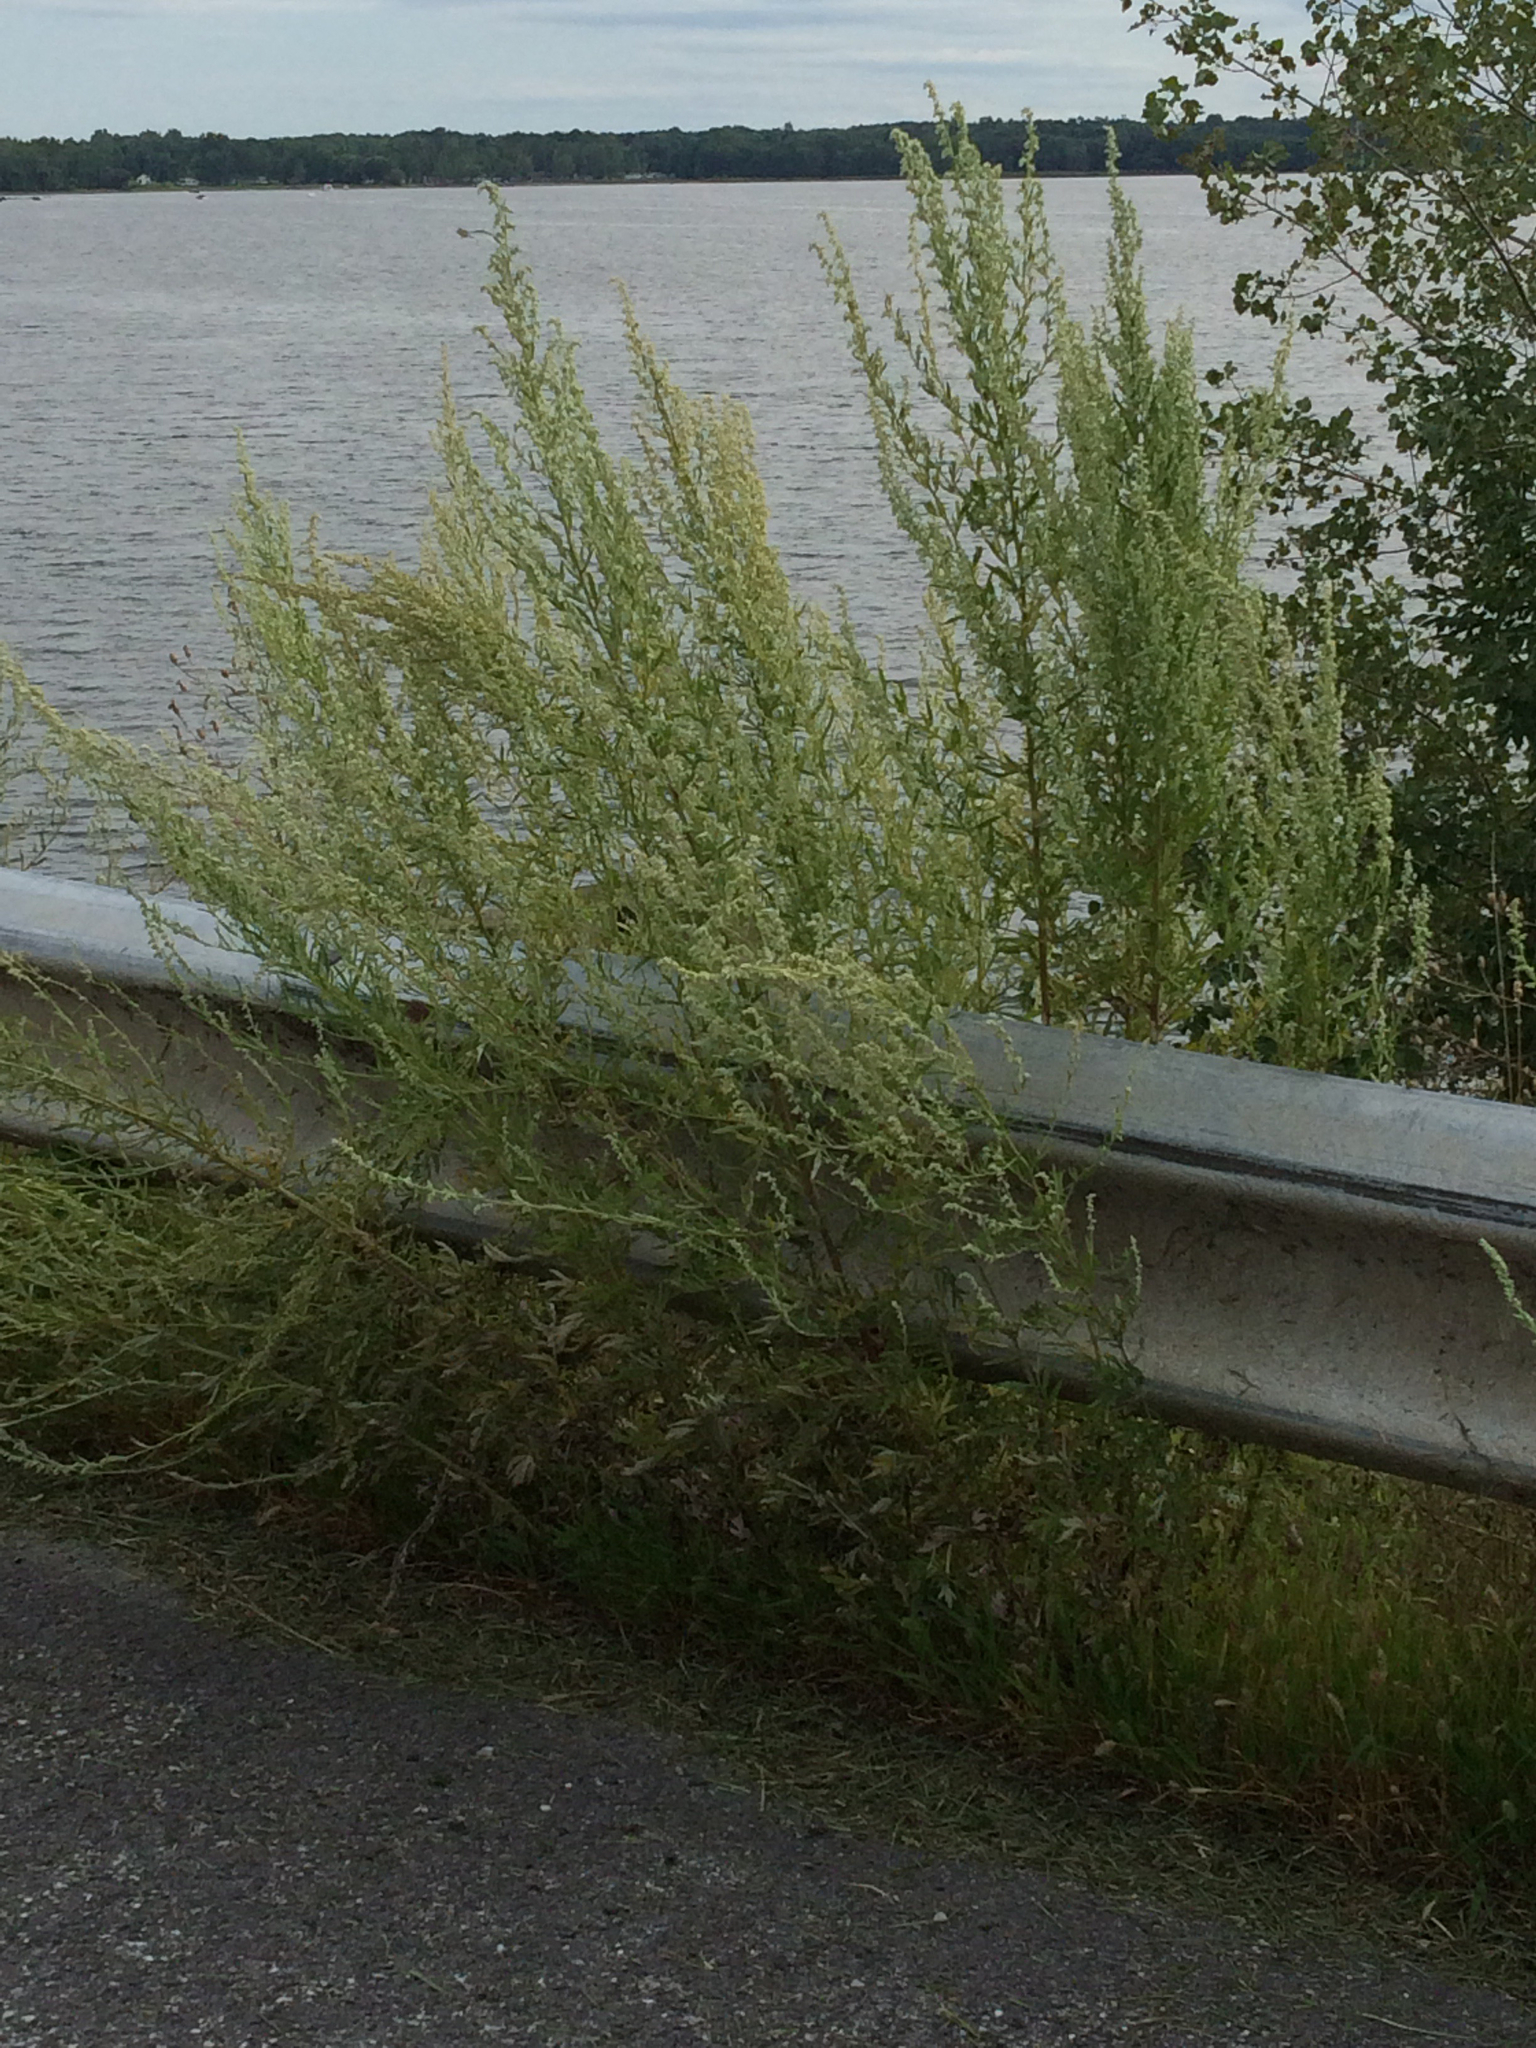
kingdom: Plantae
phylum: Tracheophyta
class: Magnoliopsida
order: Asterales
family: Asteraceae
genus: Artemisia
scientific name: Artemisia vulgaris
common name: Mugwort
